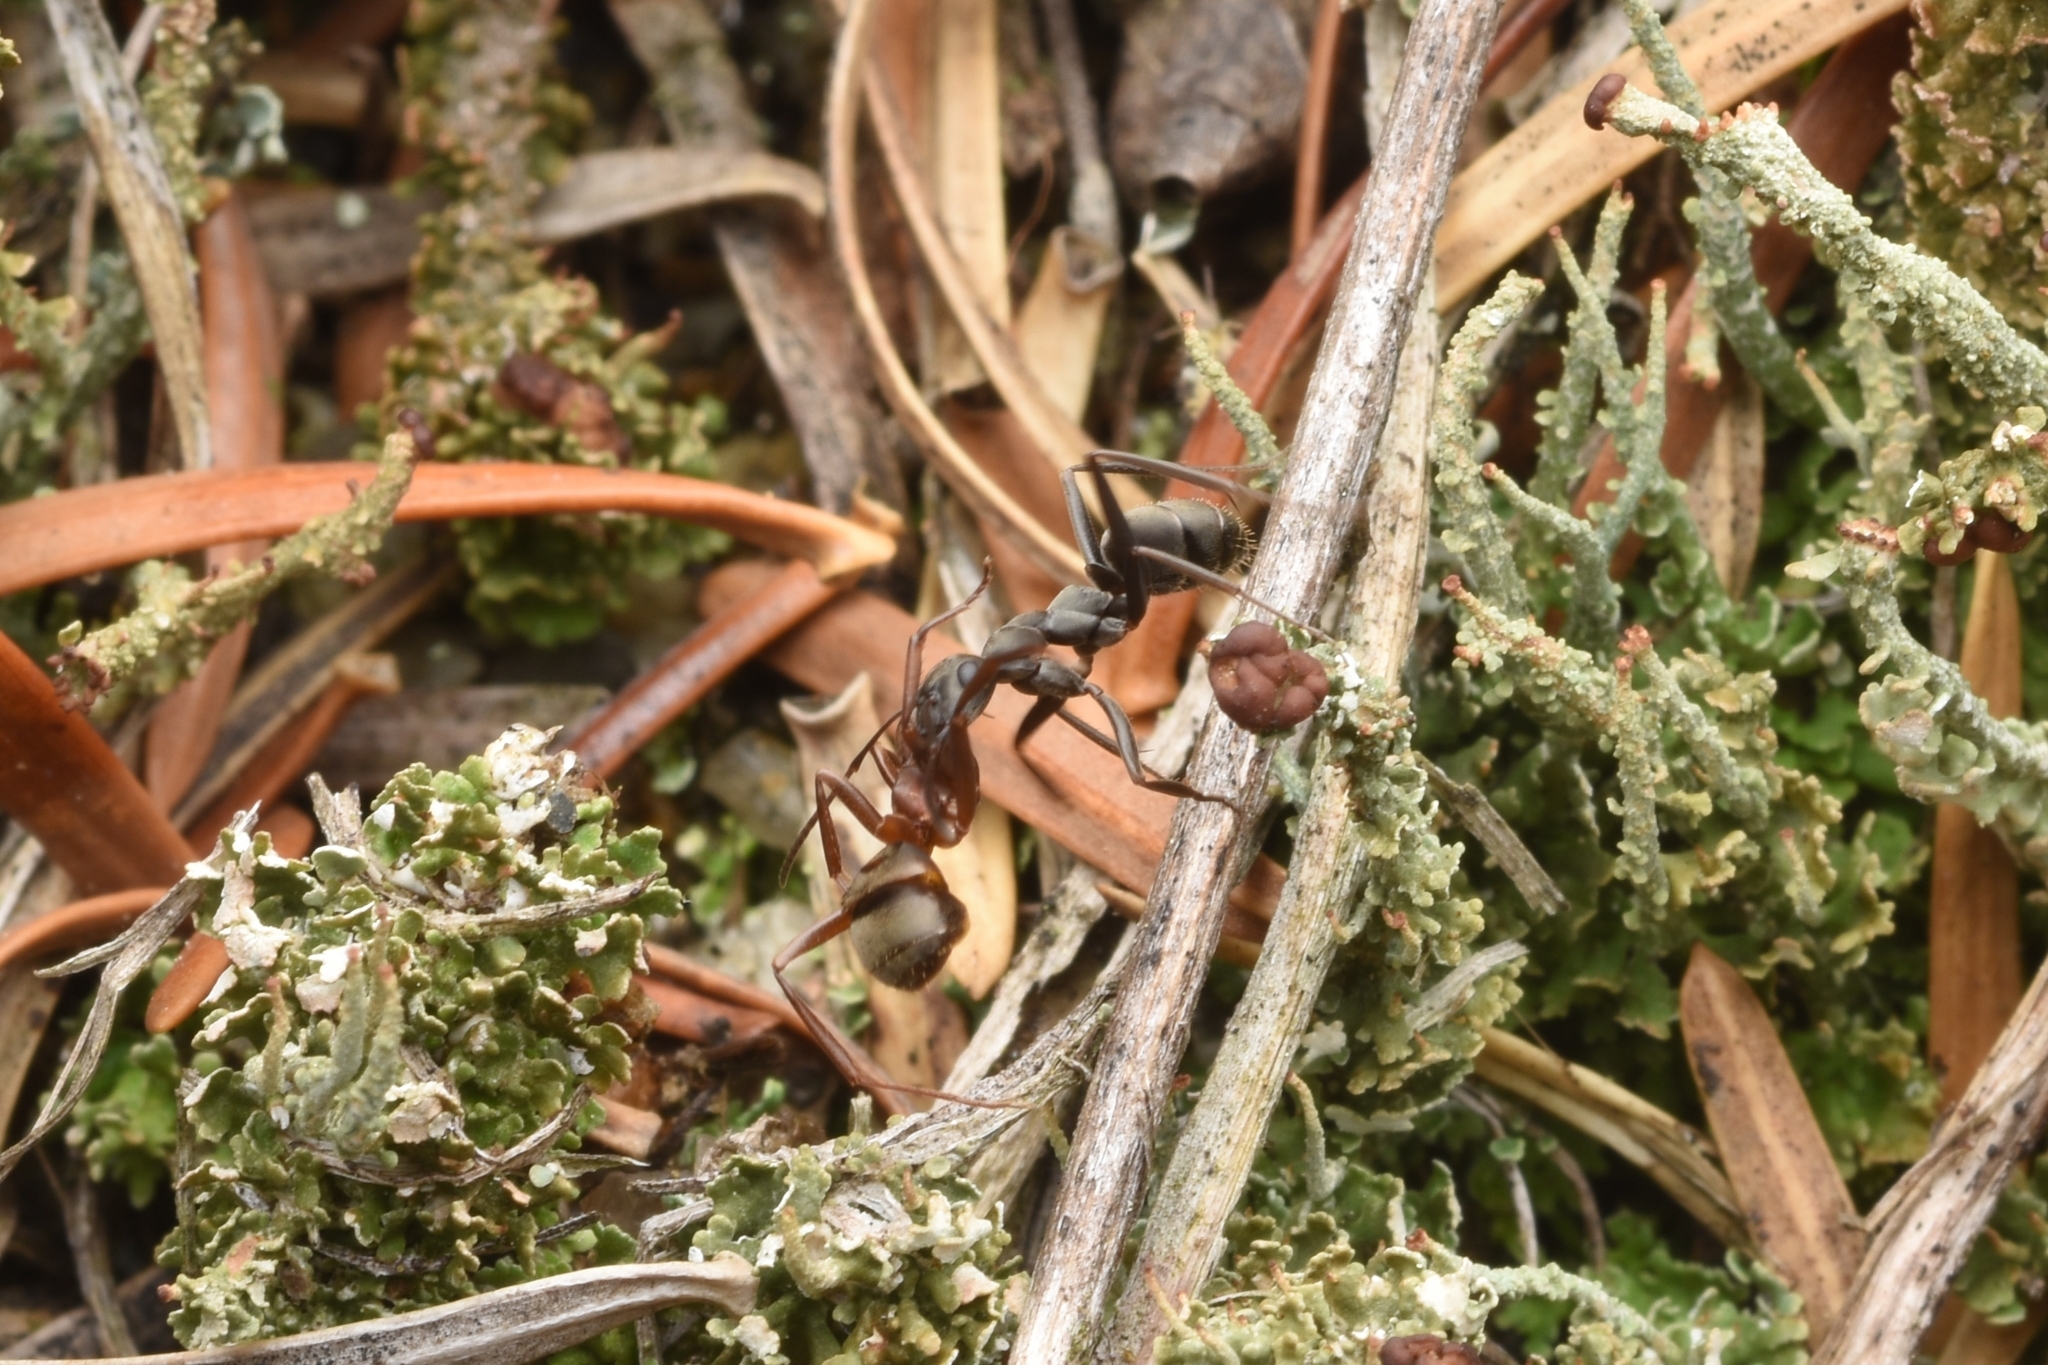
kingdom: Animalia
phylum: Arthropoda
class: Insecta
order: Hymenoptera
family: Formicidae
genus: Formica
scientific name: Formica japonica
